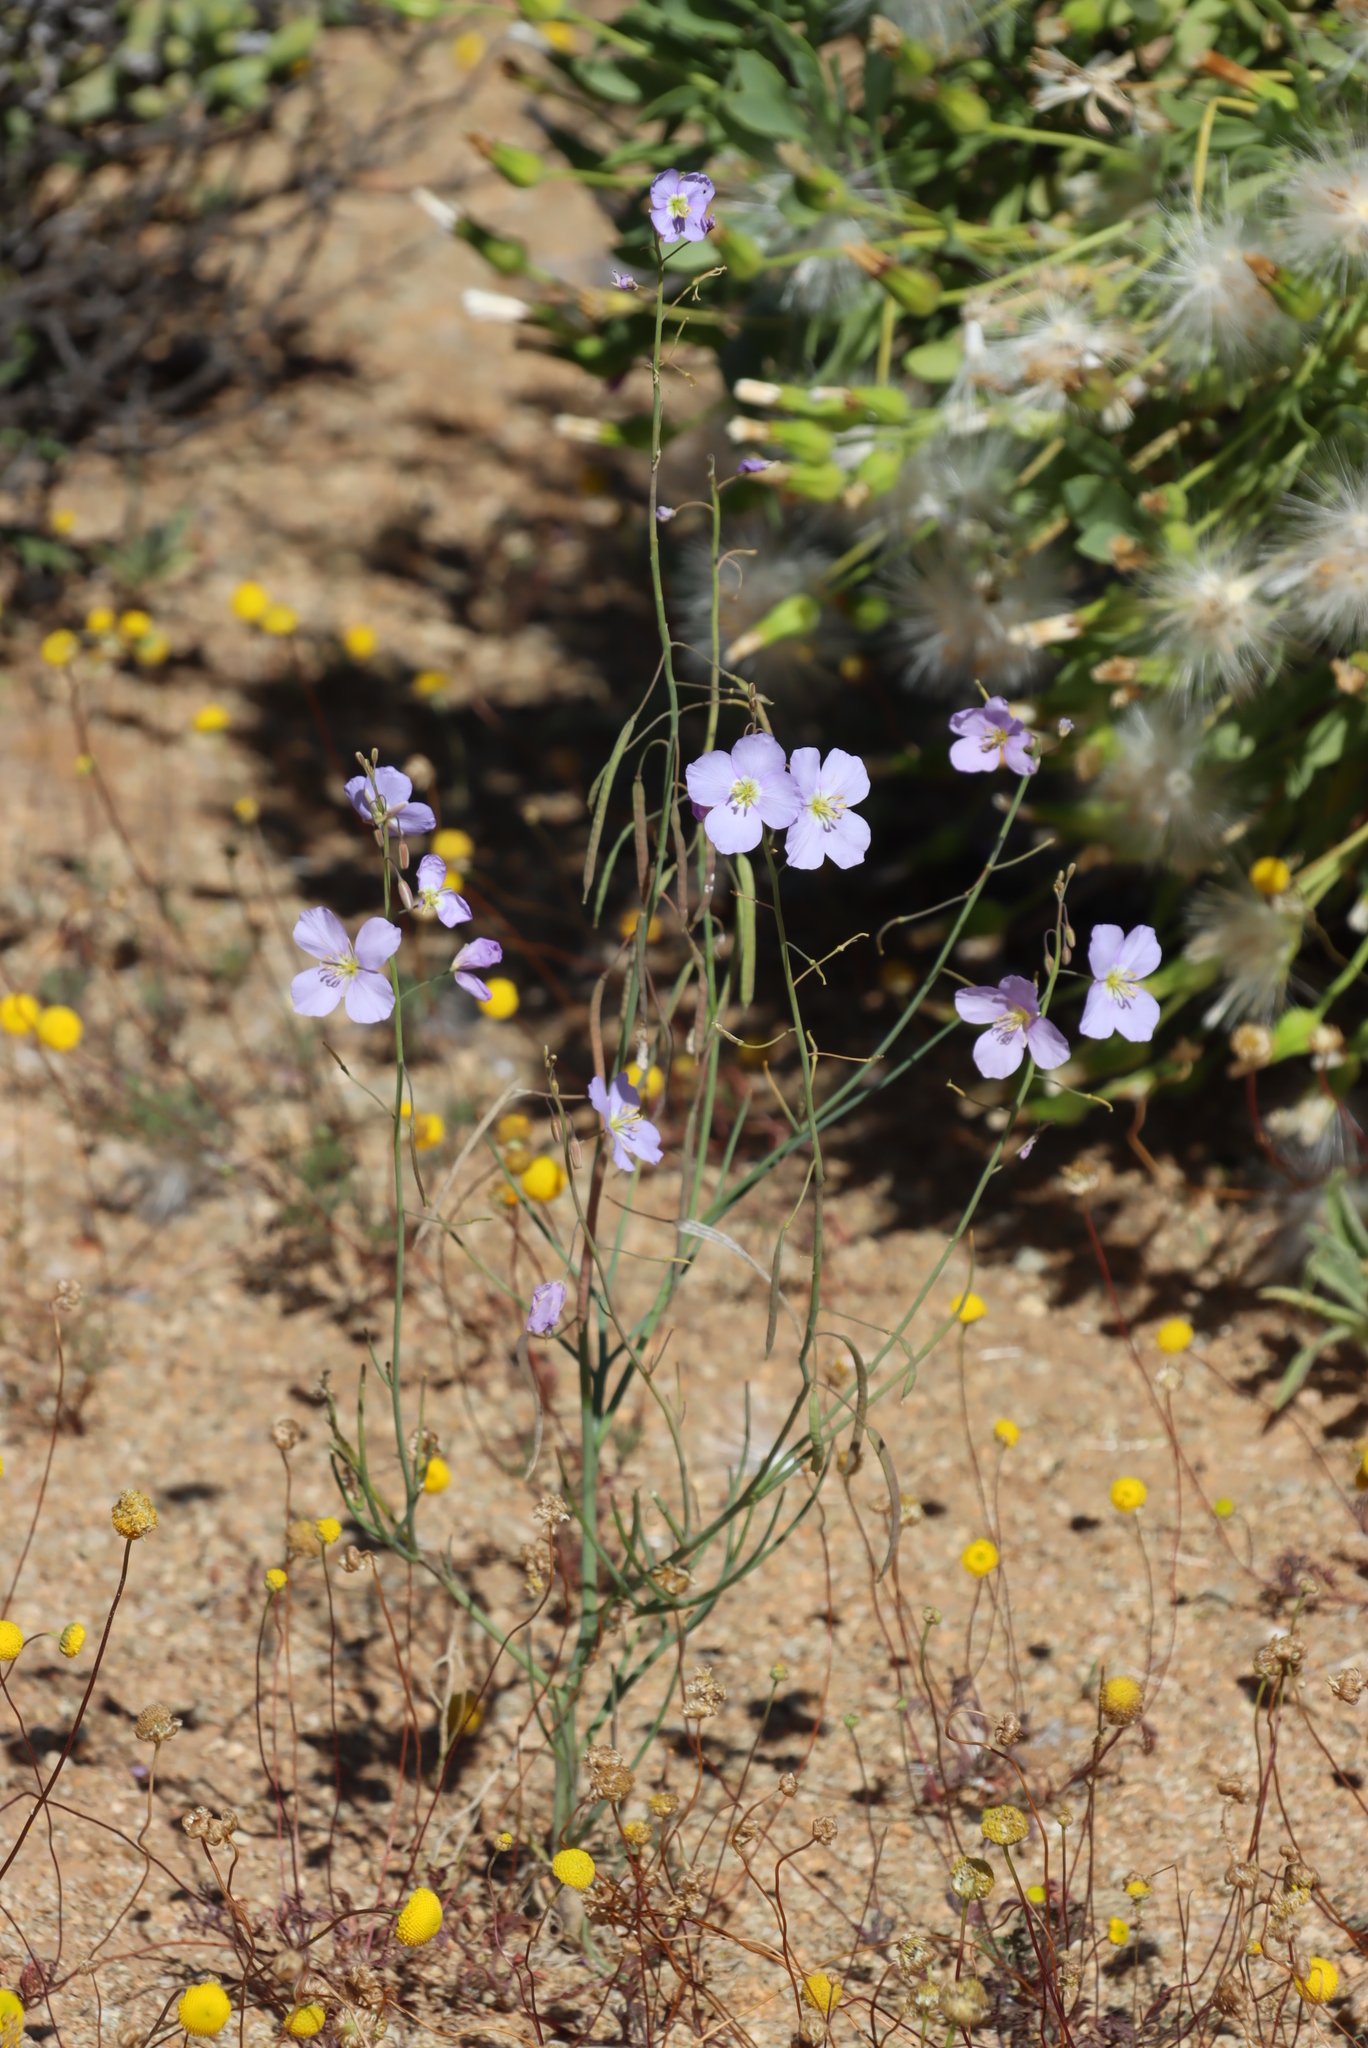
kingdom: Plantae
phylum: Tracheophyta
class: Magnoliopsida
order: Brassicales
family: Brassicaceae
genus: Heliophila
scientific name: Heliophila trifurca
